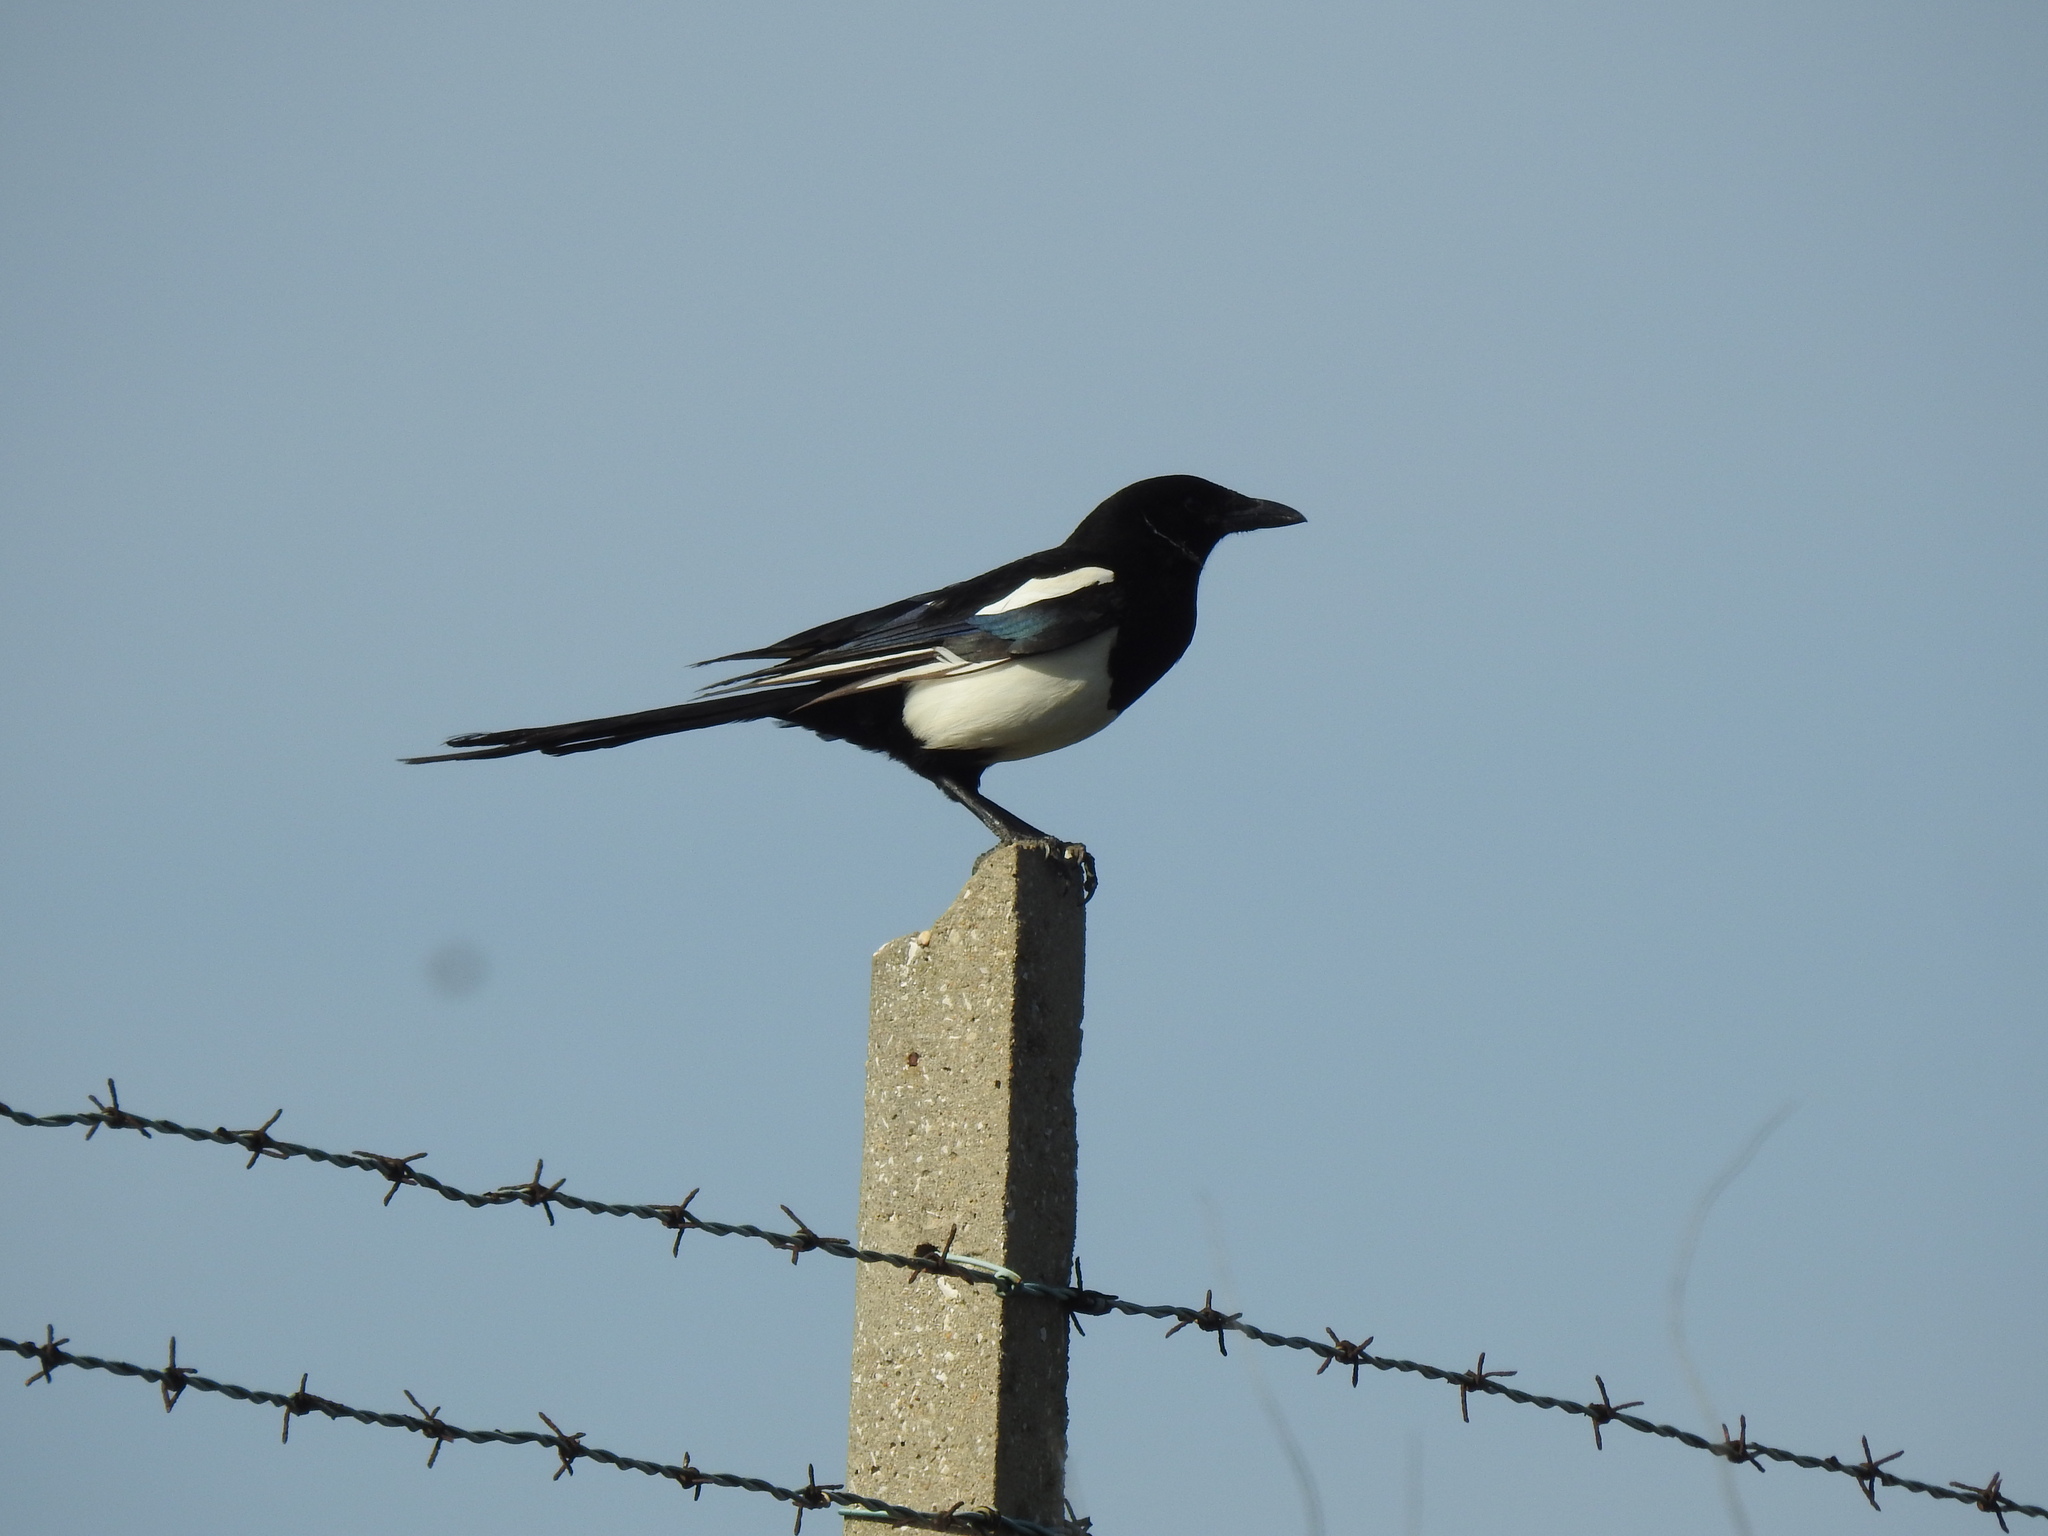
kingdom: Animalia
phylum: Chordata
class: Aves
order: Passeriformes
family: Corvidae
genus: Pica
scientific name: Pica pica
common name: Eurasian magpie
